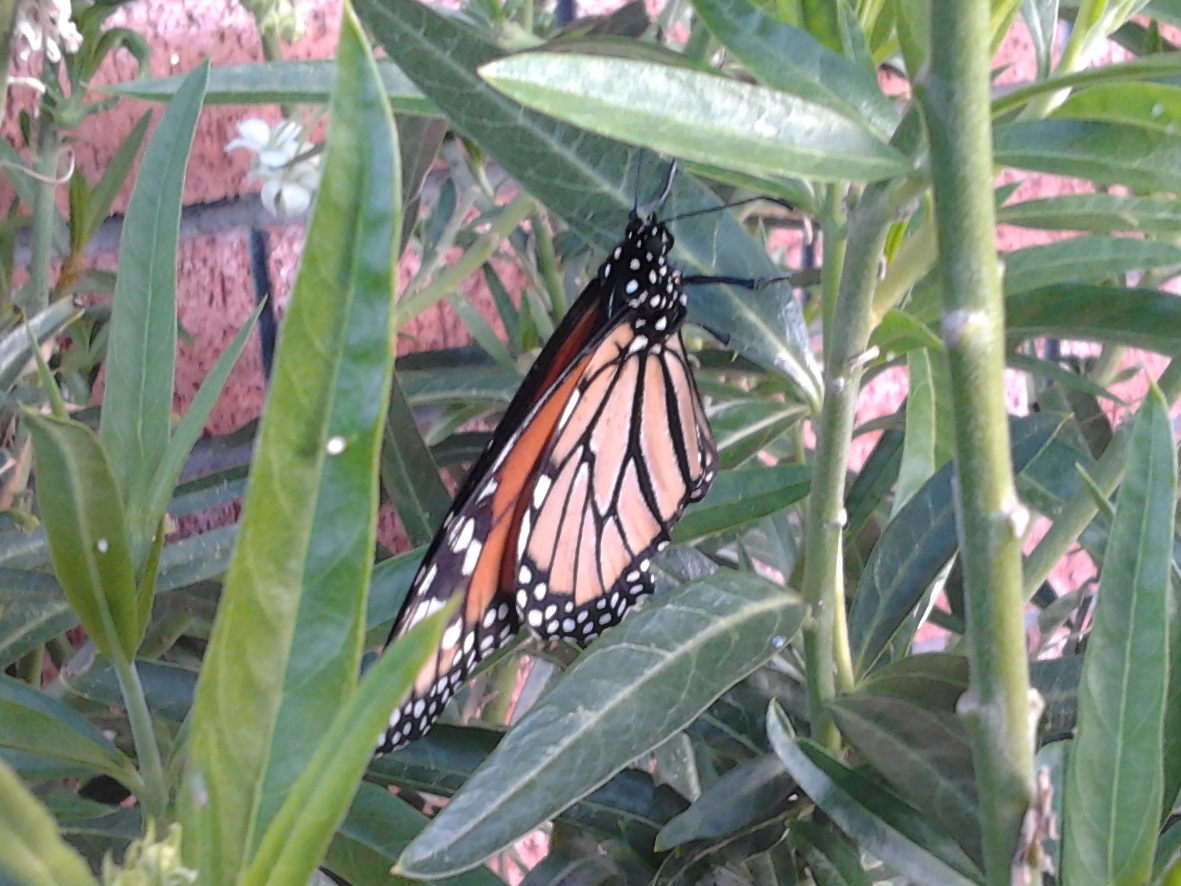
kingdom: Animalia
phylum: Arthropoda
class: Insecta
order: Lepidoptera
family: Nymphalidae
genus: Danaus
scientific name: Danaus plexippus
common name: Monarch
